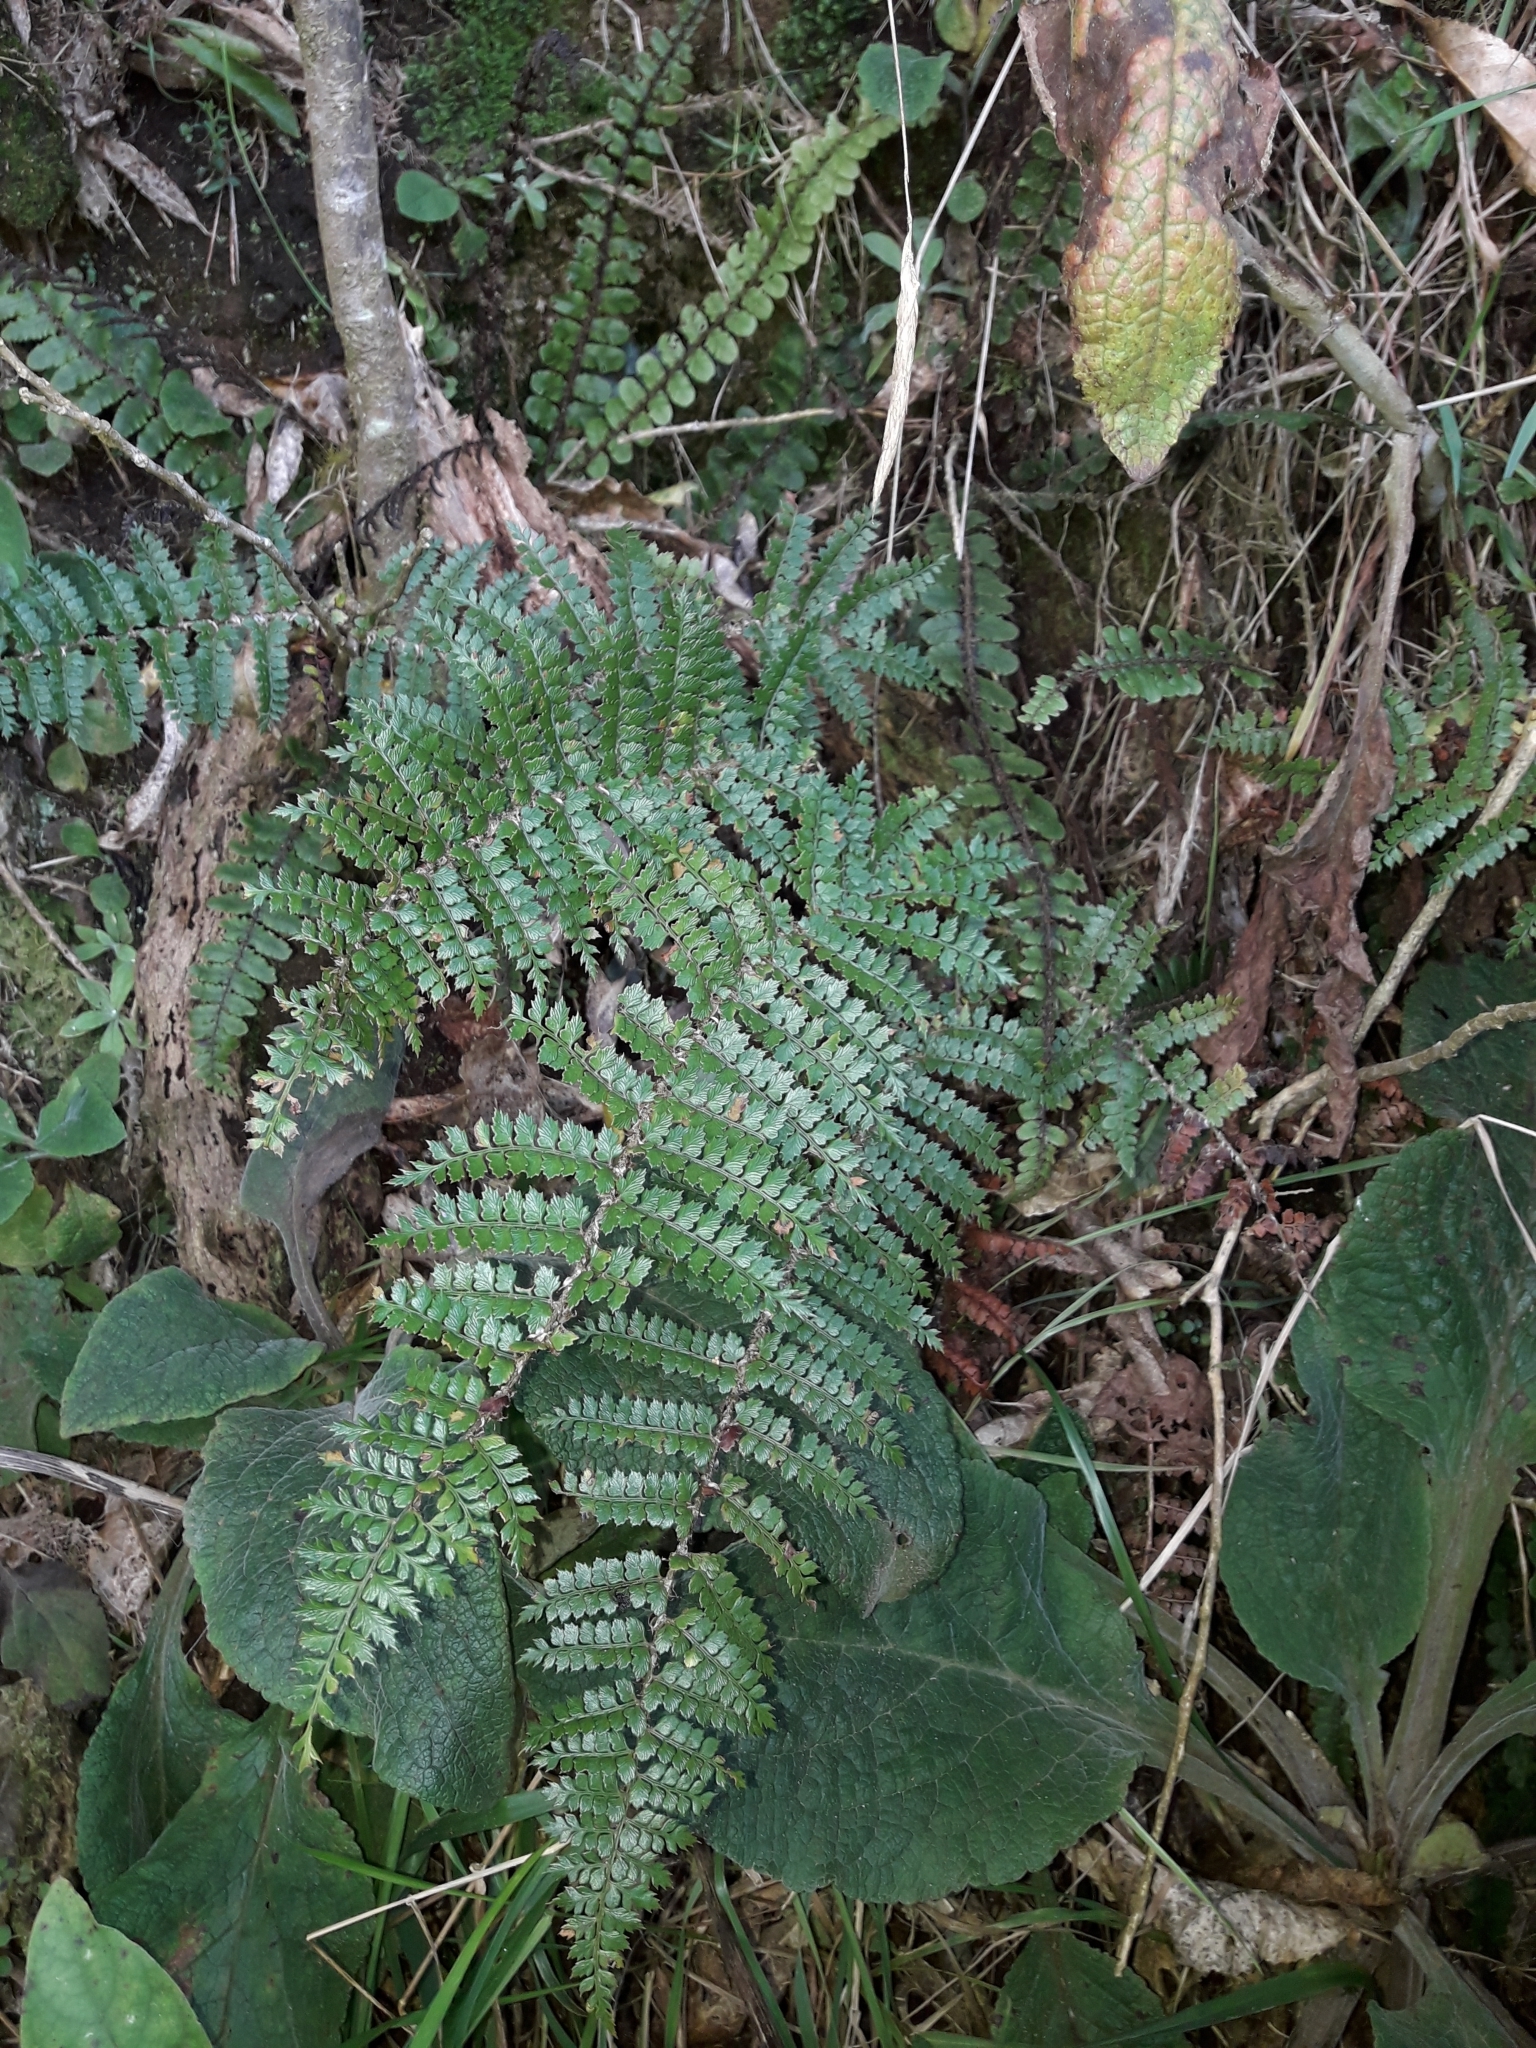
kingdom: Plantae
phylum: Tracheophyta
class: Polypodiopsida
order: Polypodiales
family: Dryopteridaceae
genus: Polystichum
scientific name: Polystichum vestitum
